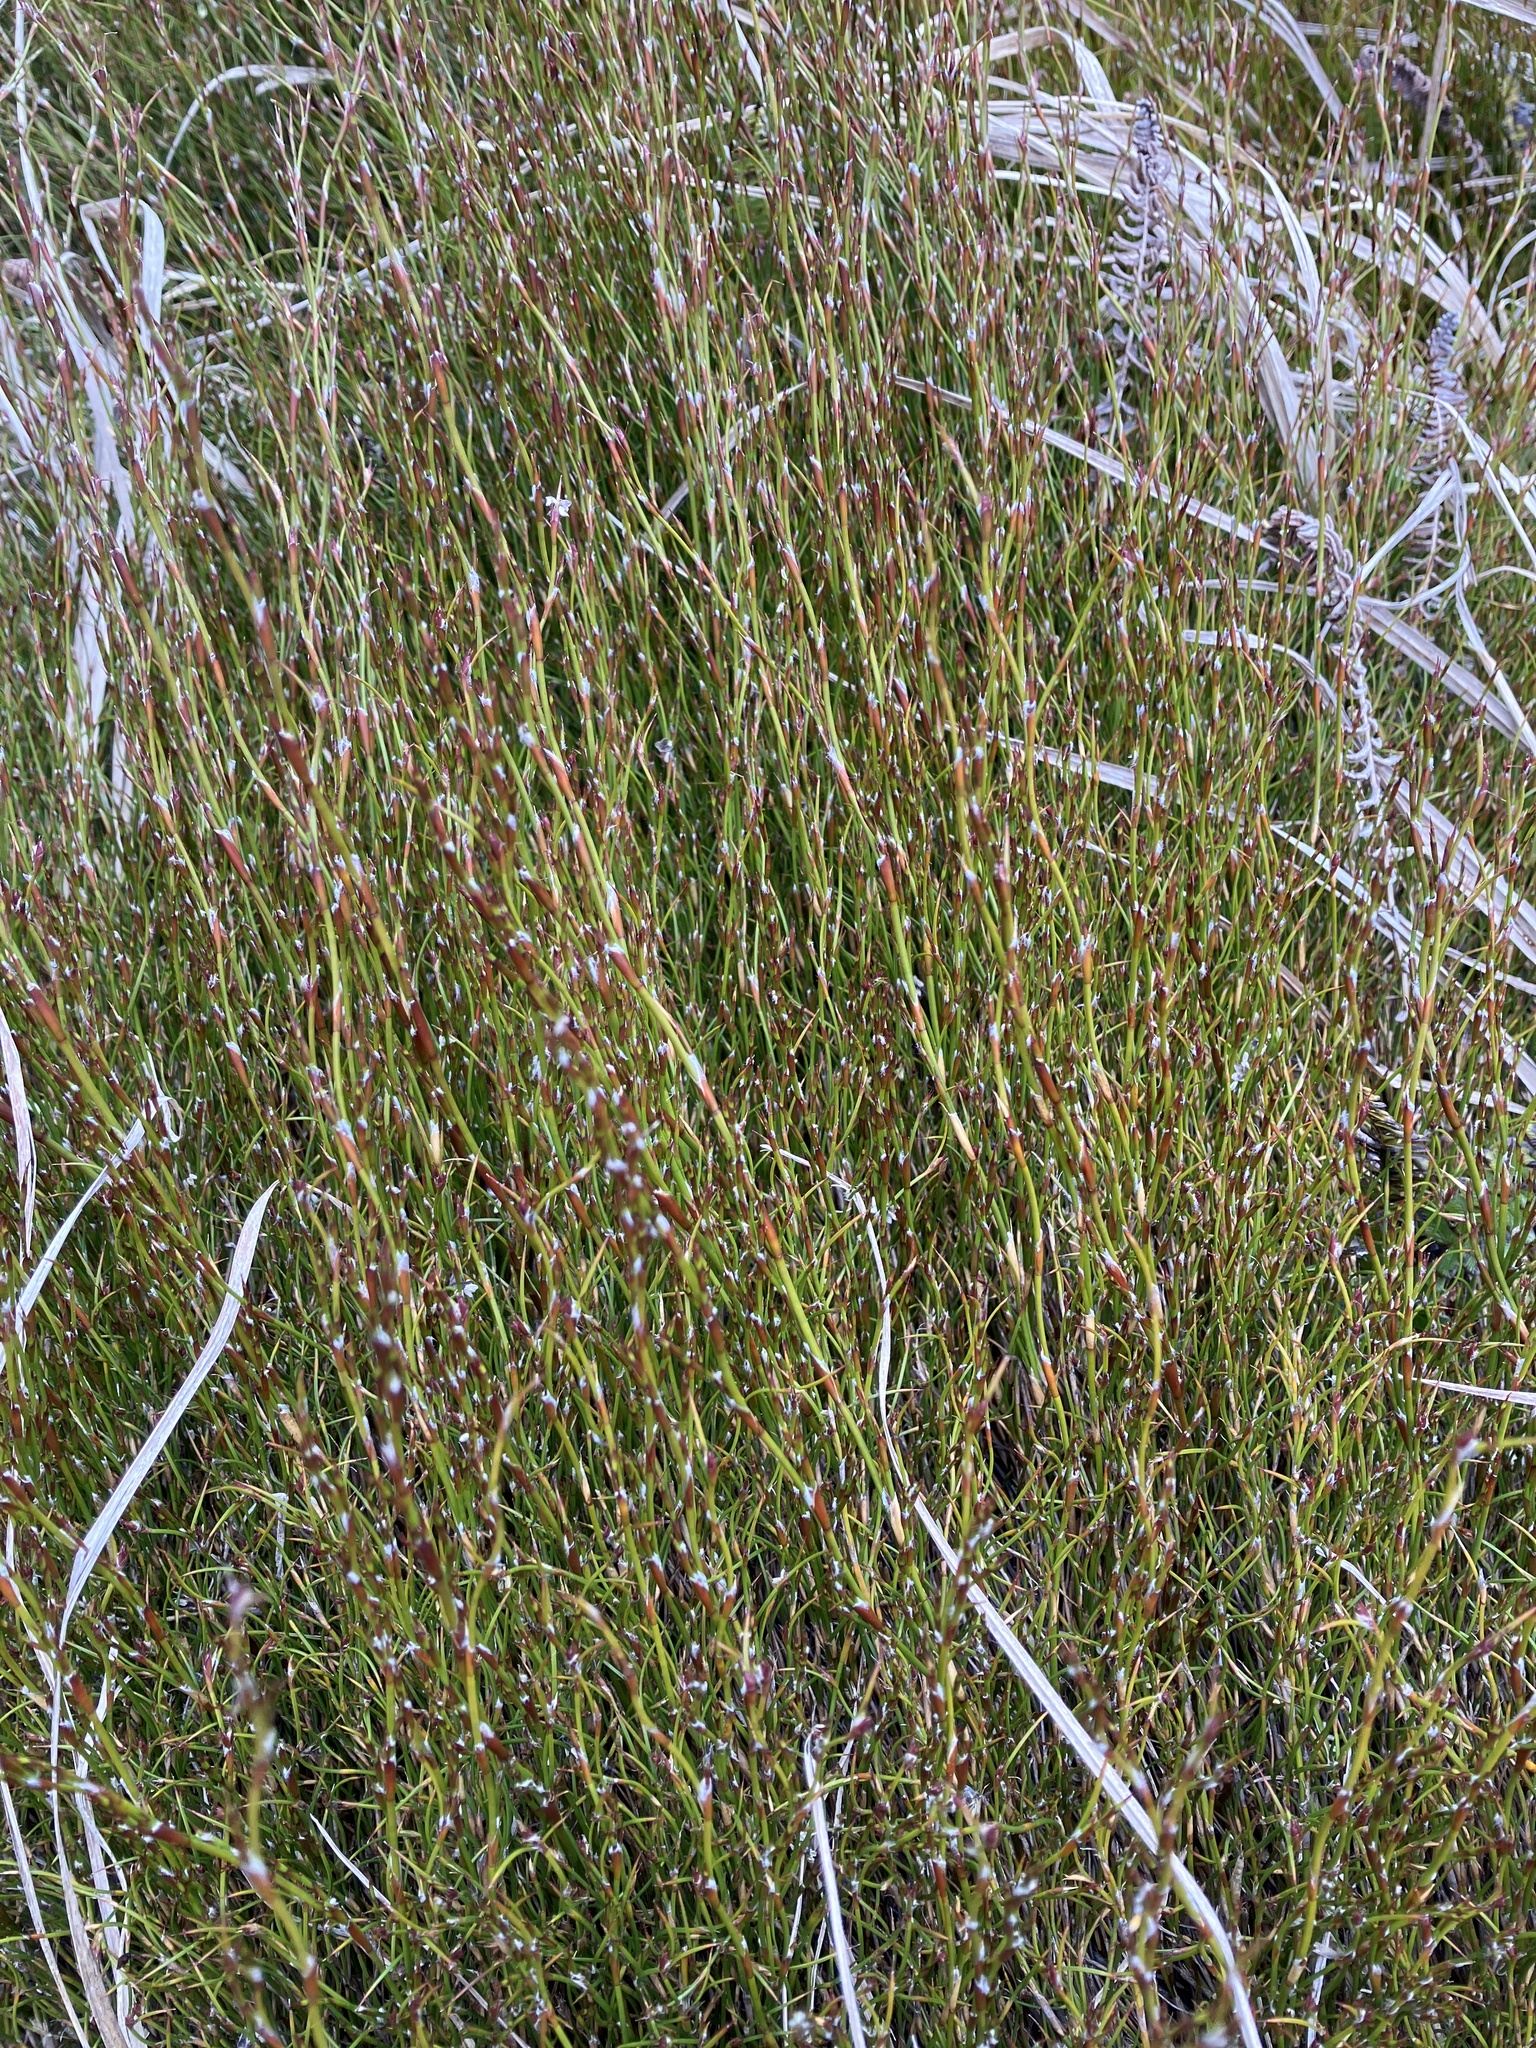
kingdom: Plantae
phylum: Tracheophyta
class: Liliopsida
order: Poales
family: Restionaceae
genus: Empodisma
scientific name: Empodisma minus
